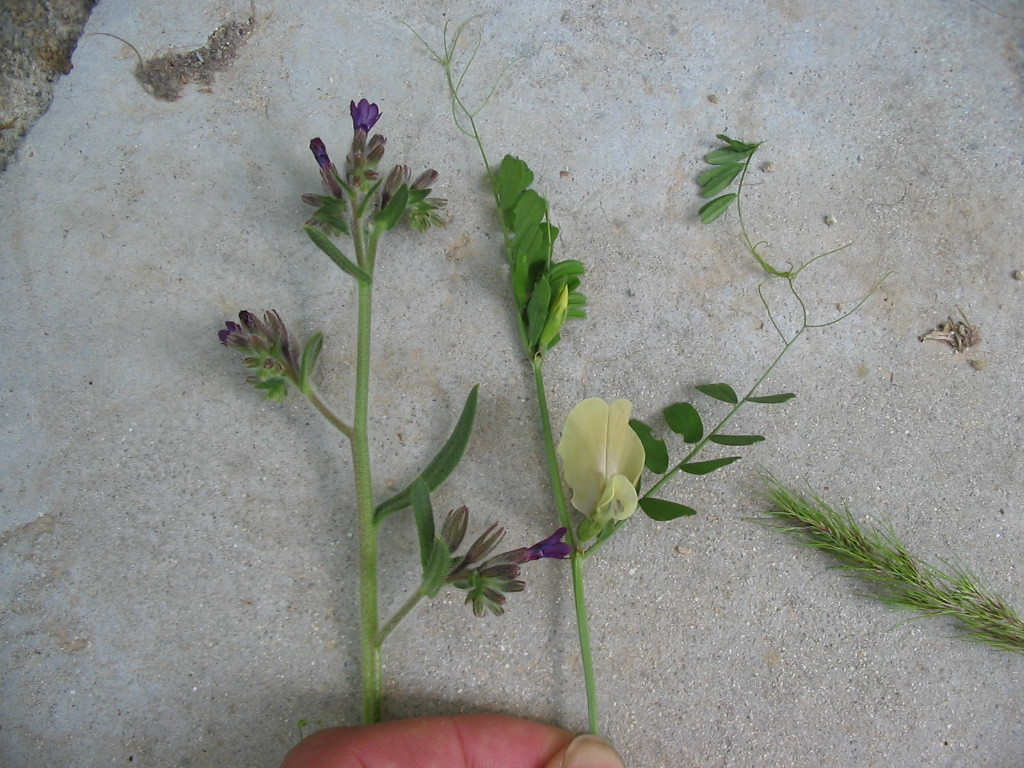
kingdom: Plantae
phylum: Tracheophyta
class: Magnoliopsida
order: Fabales
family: Fabaceae
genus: Vicia
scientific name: Vicia grandiflora
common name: Large yellow vetch
